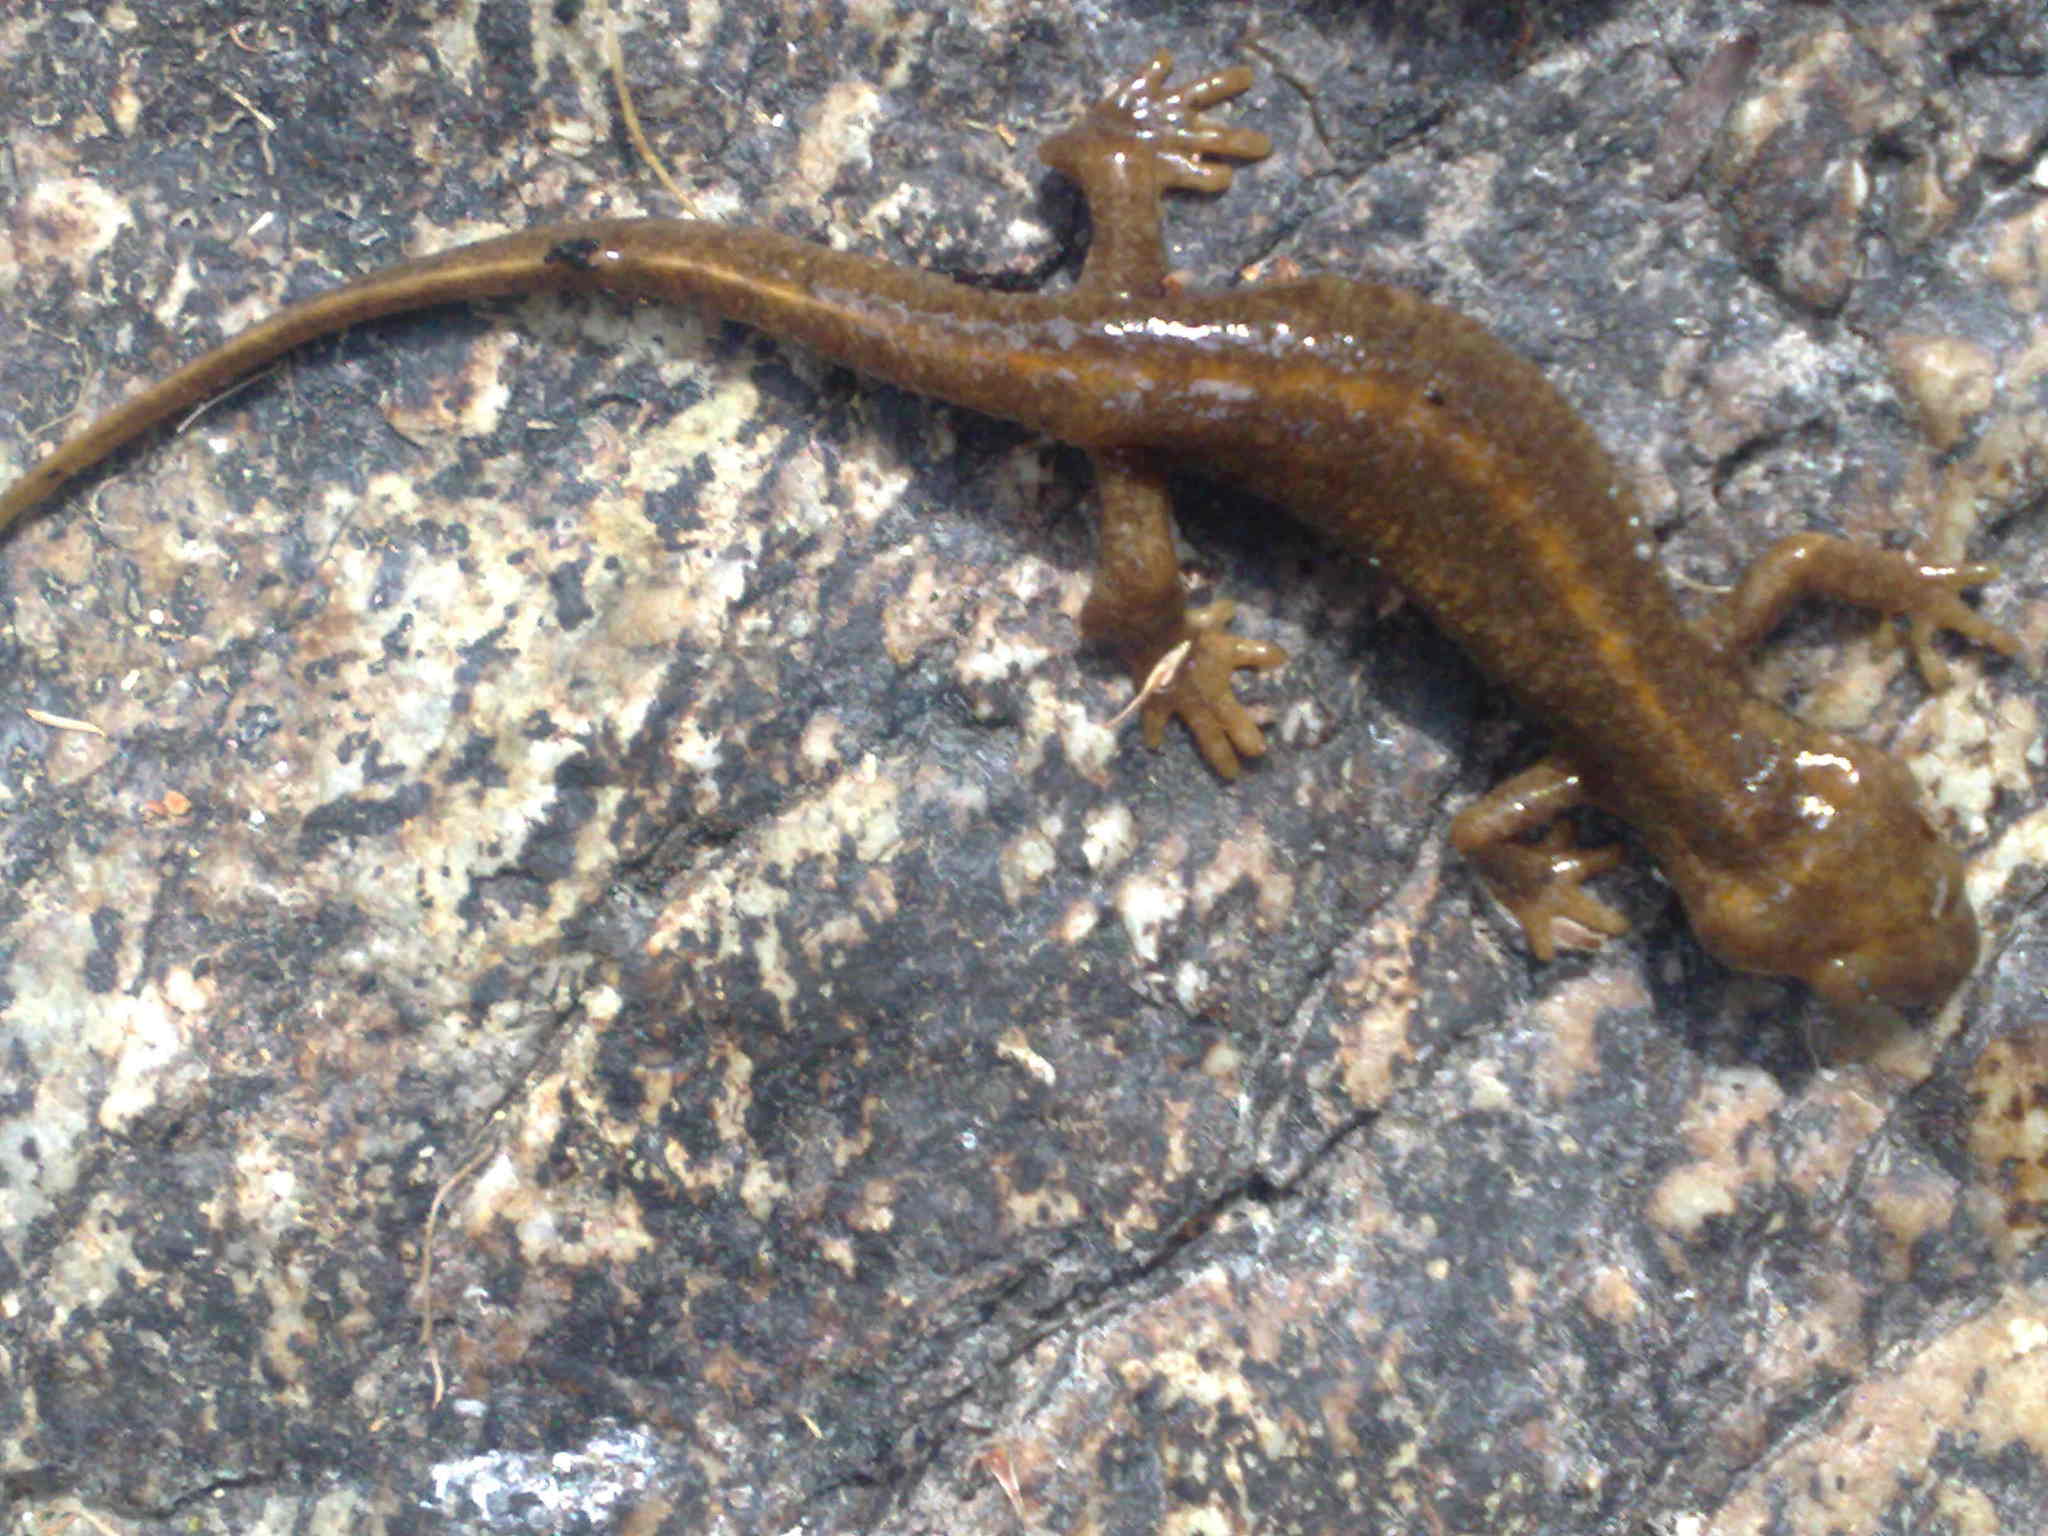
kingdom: Animalia
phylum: Chordata
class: Amphibia
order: Caudata
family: Salamandridae
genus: Euproctus
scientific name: Euproctus montanus
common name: Corsican brook salamander
